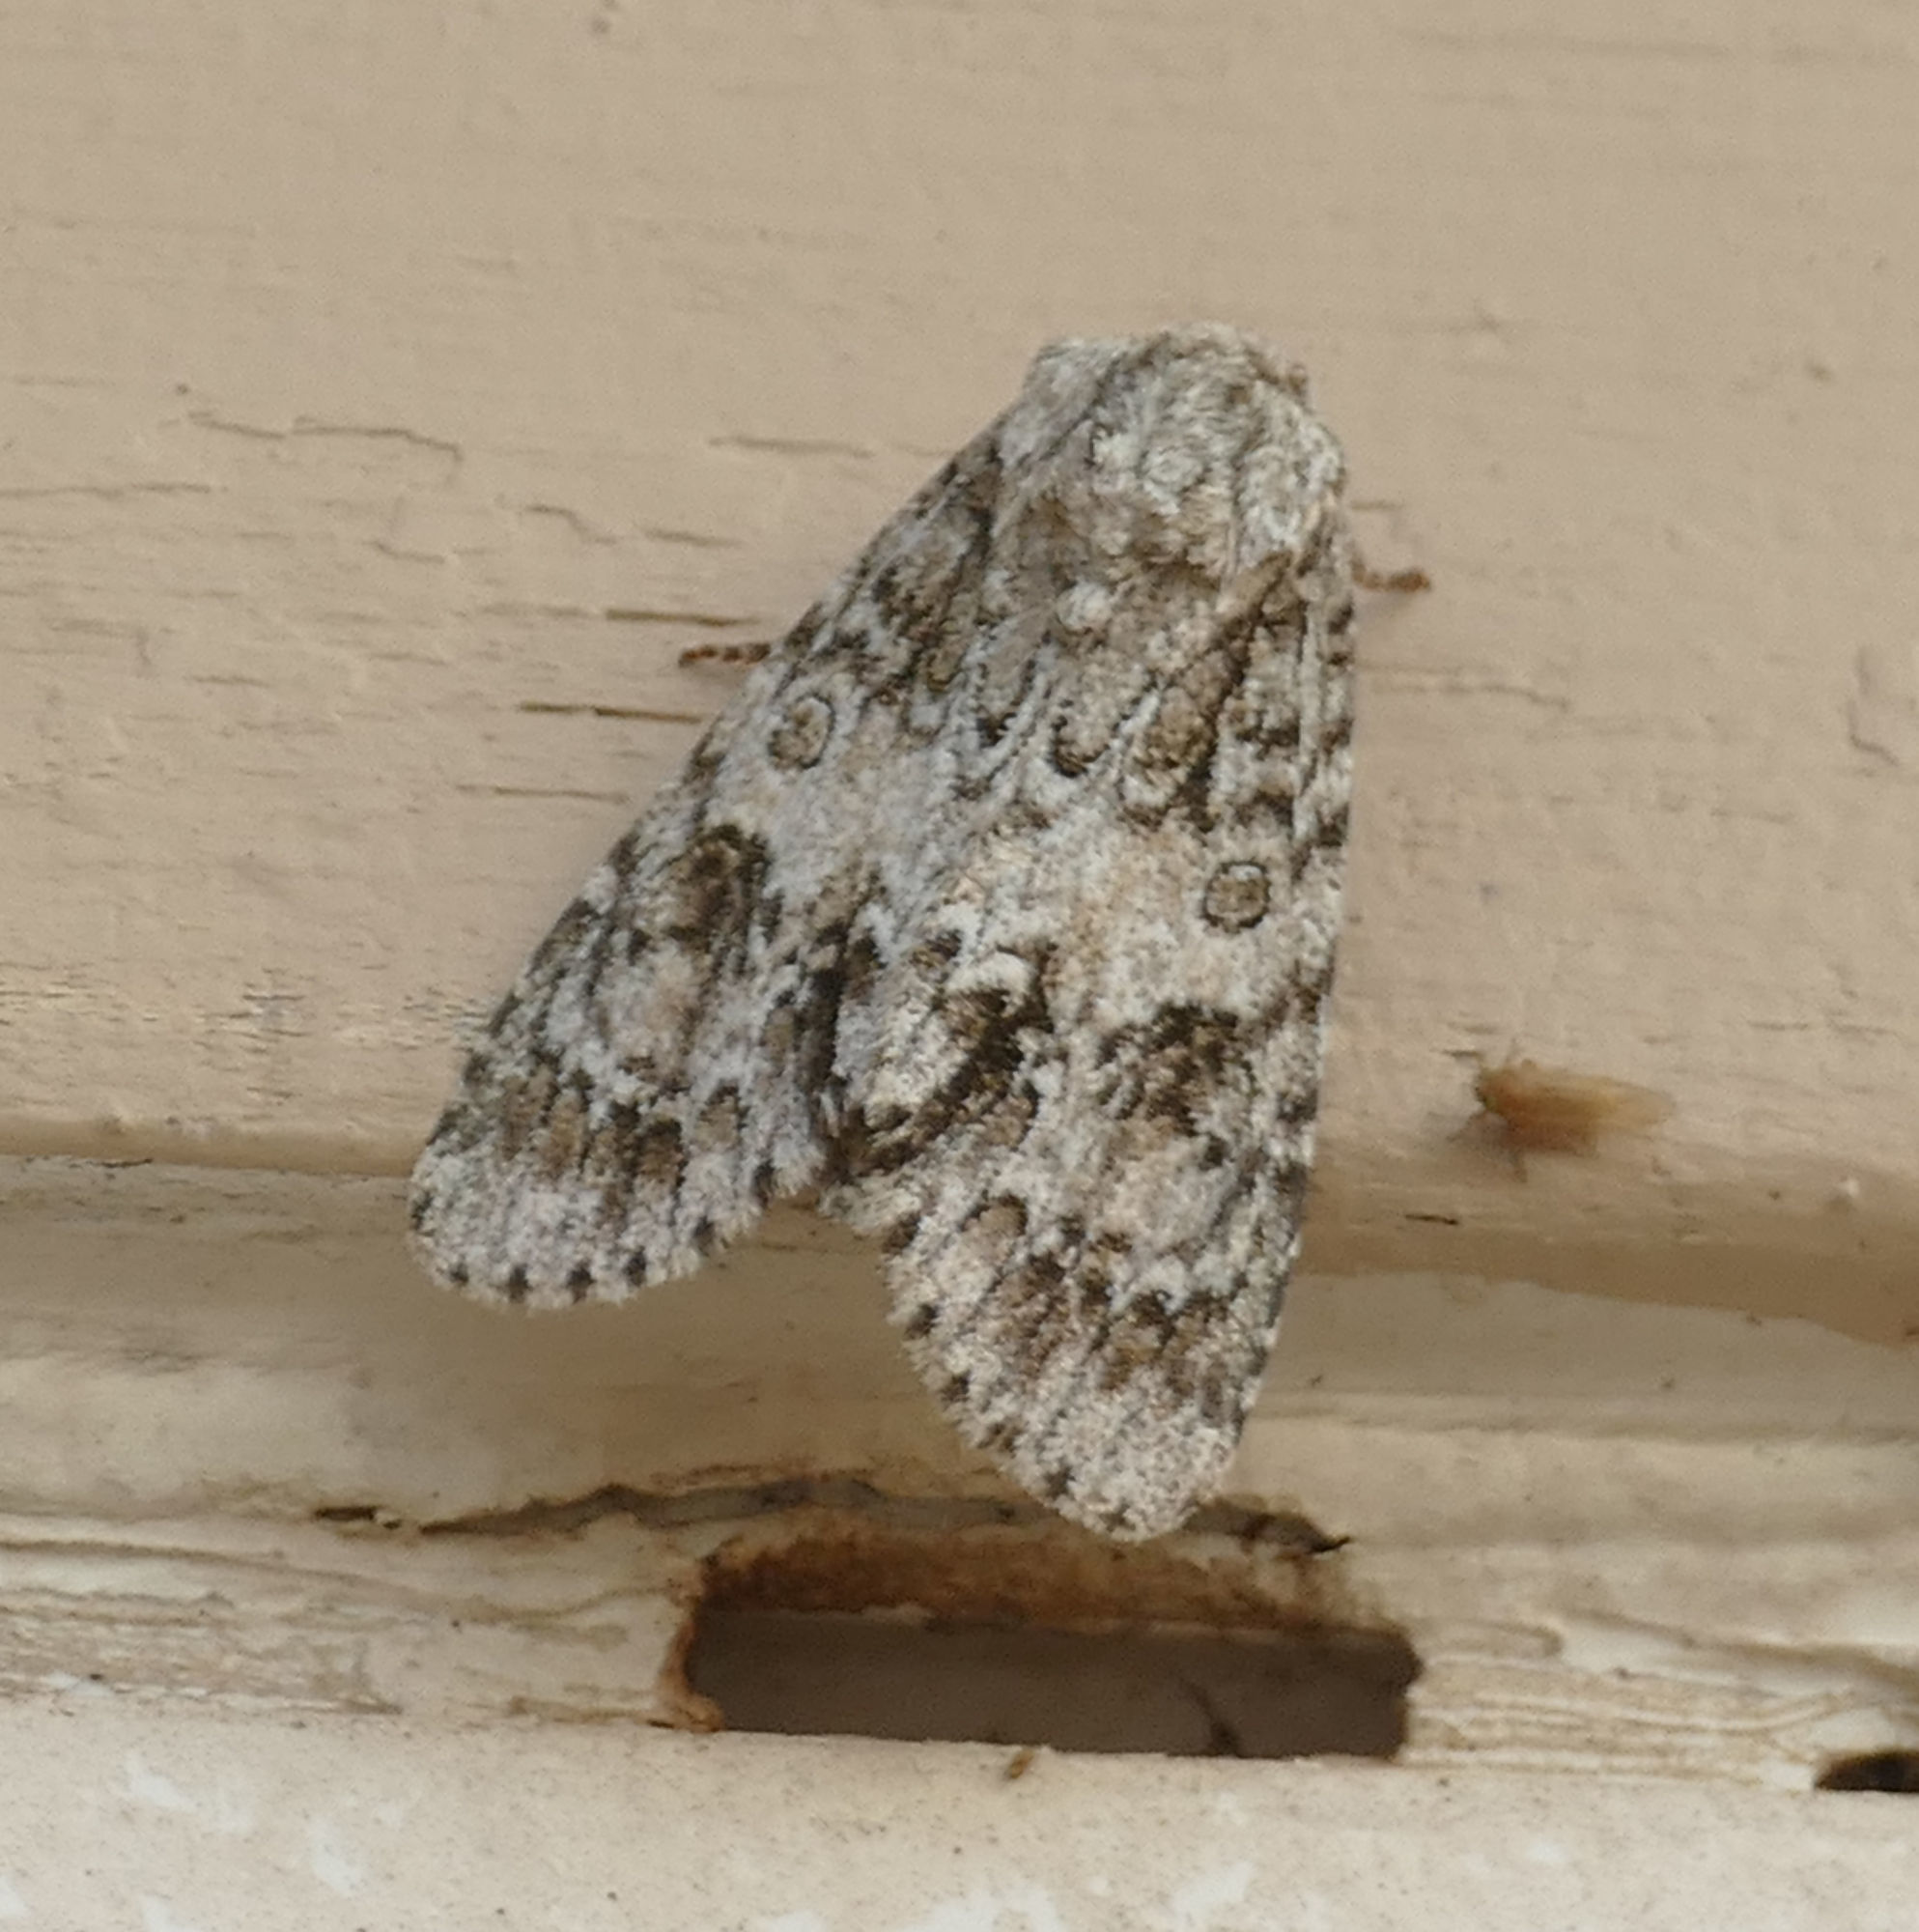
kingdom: Animalia
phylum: Arthropoda
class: Insecta
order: Lepidoptera
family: Noctuidae
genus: Acronicta
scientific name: Acronicta rubricoma
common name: Hackberry dagger
